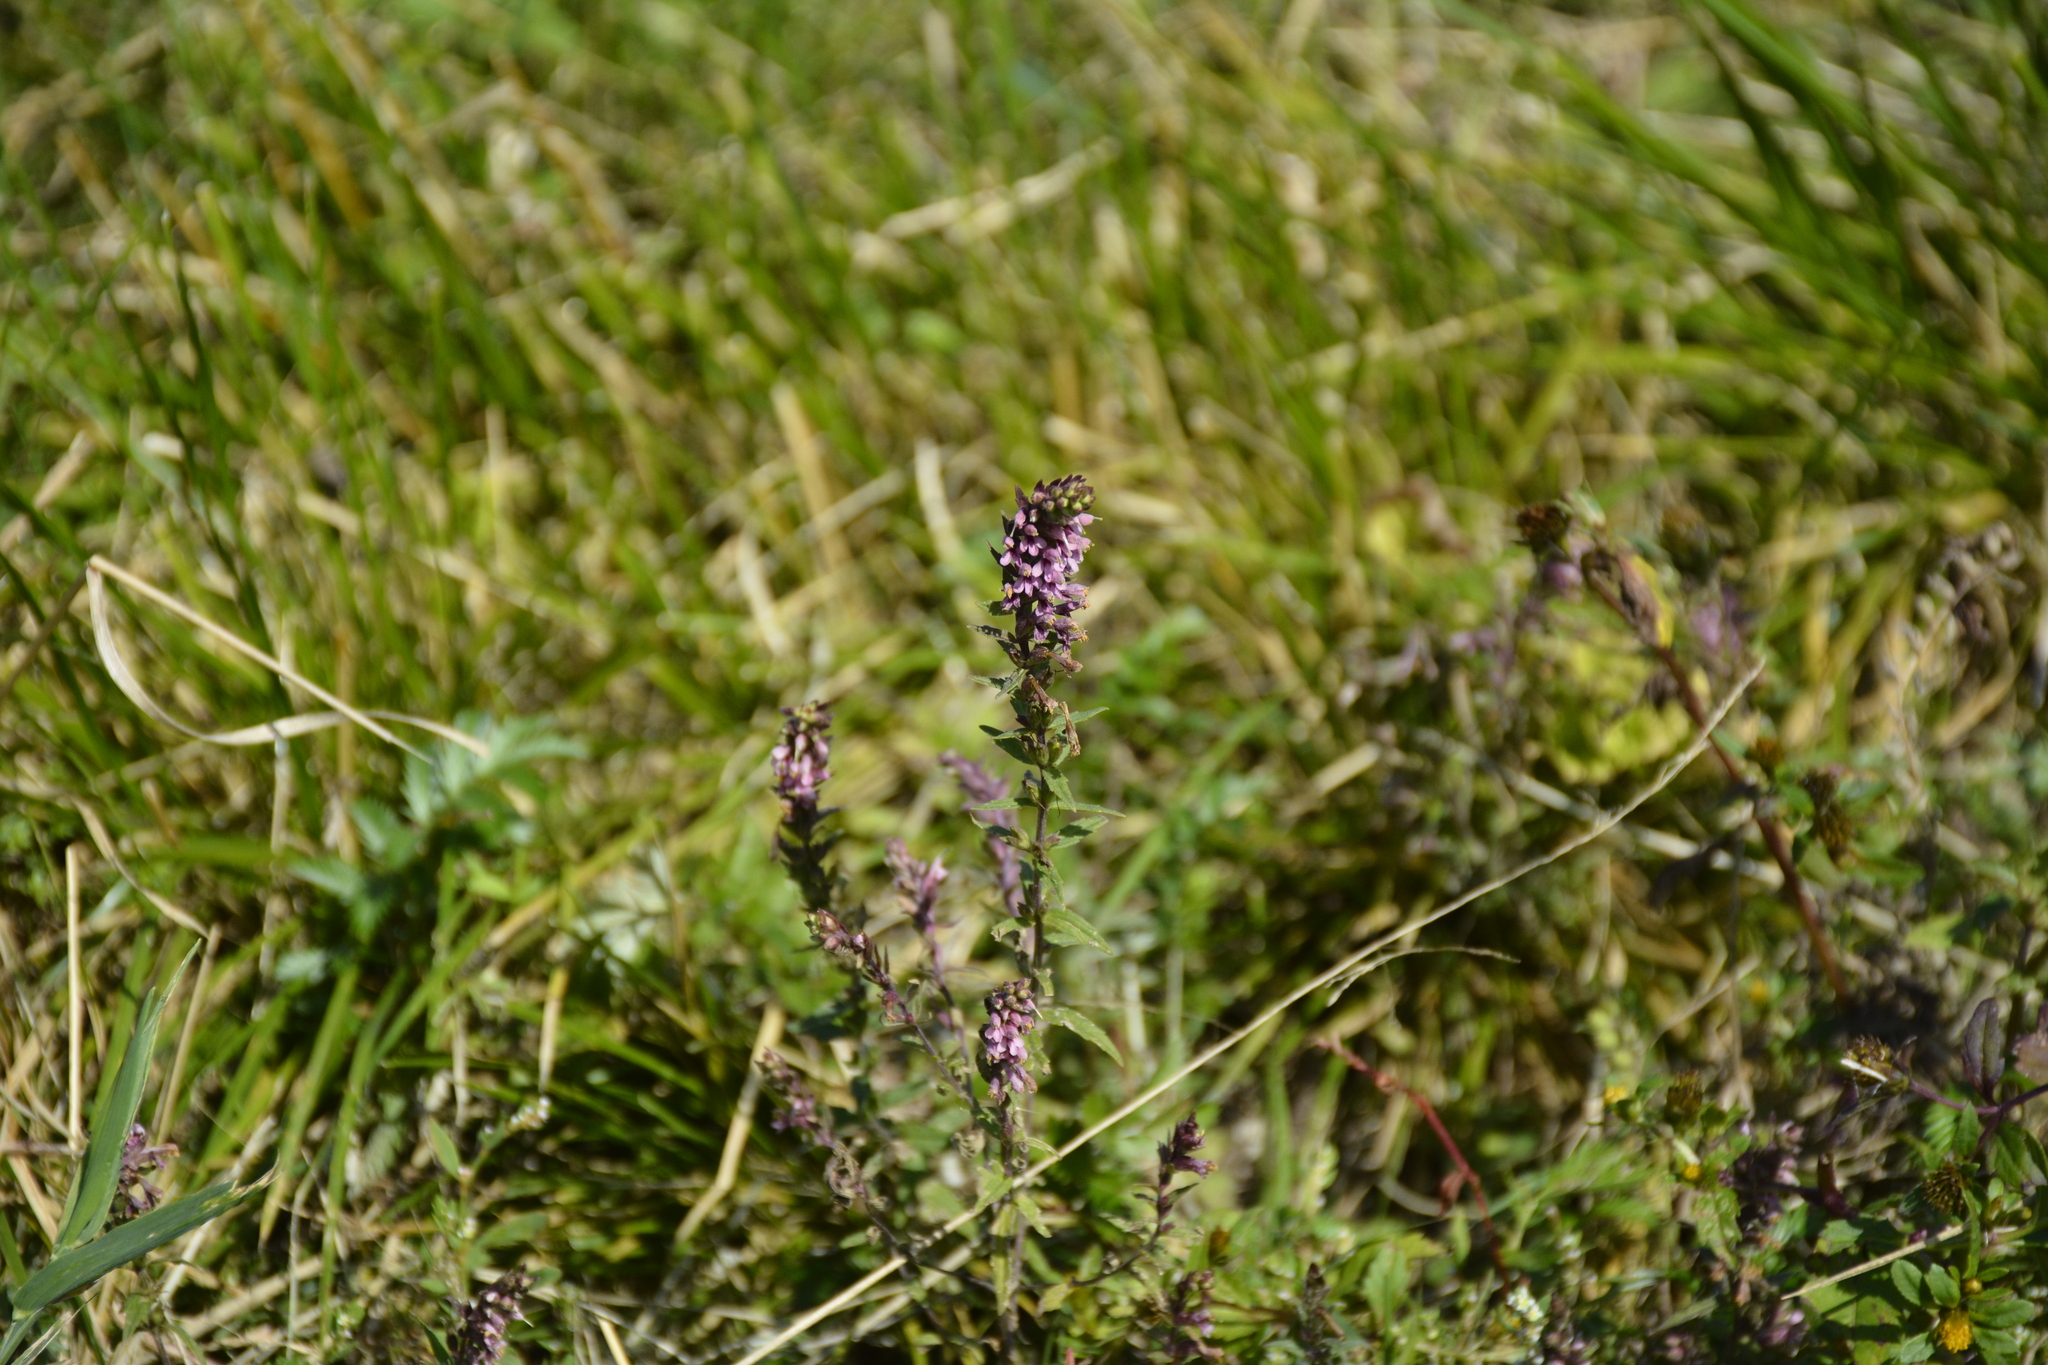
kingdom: Plantae
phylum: Tracheophyta
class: Magnoliopsida
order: Lamiales
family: Orobanchaceae
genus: Odontites
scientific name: Odontites vulgaris
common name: Broomrape
